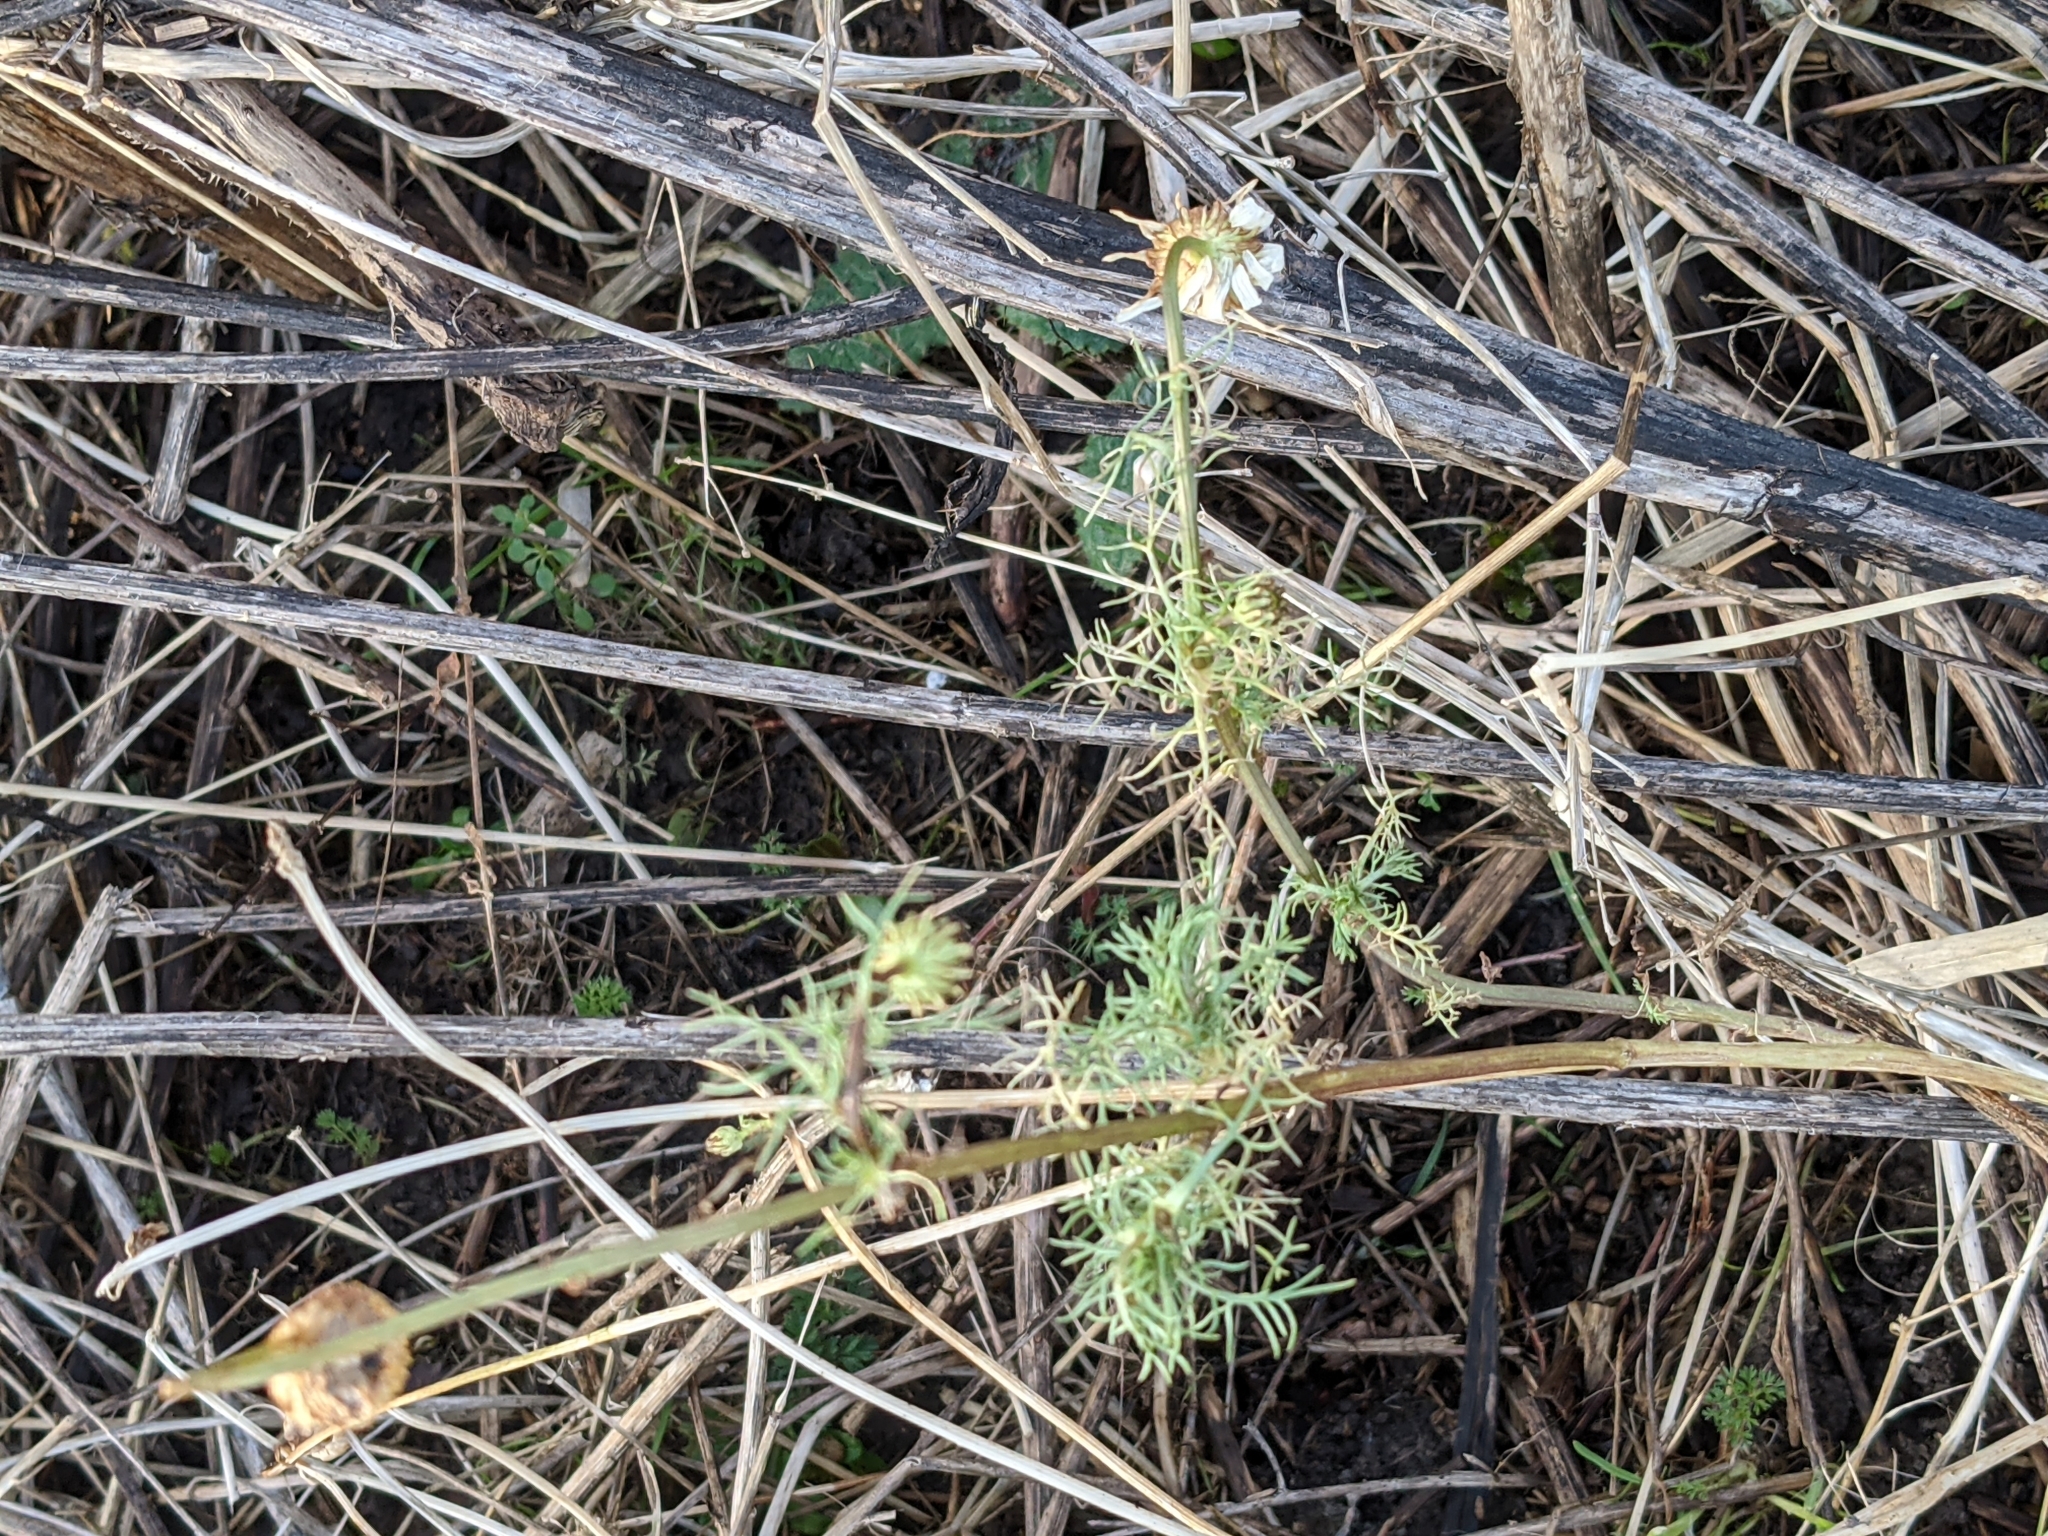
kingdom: Plantae
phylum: Tracheophyta
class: Magnoliopsida
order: Asterales
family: Asteraceae
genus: Tripleurospermum
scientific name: Tripleurospermum inodorum
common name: Scentless mayweed
